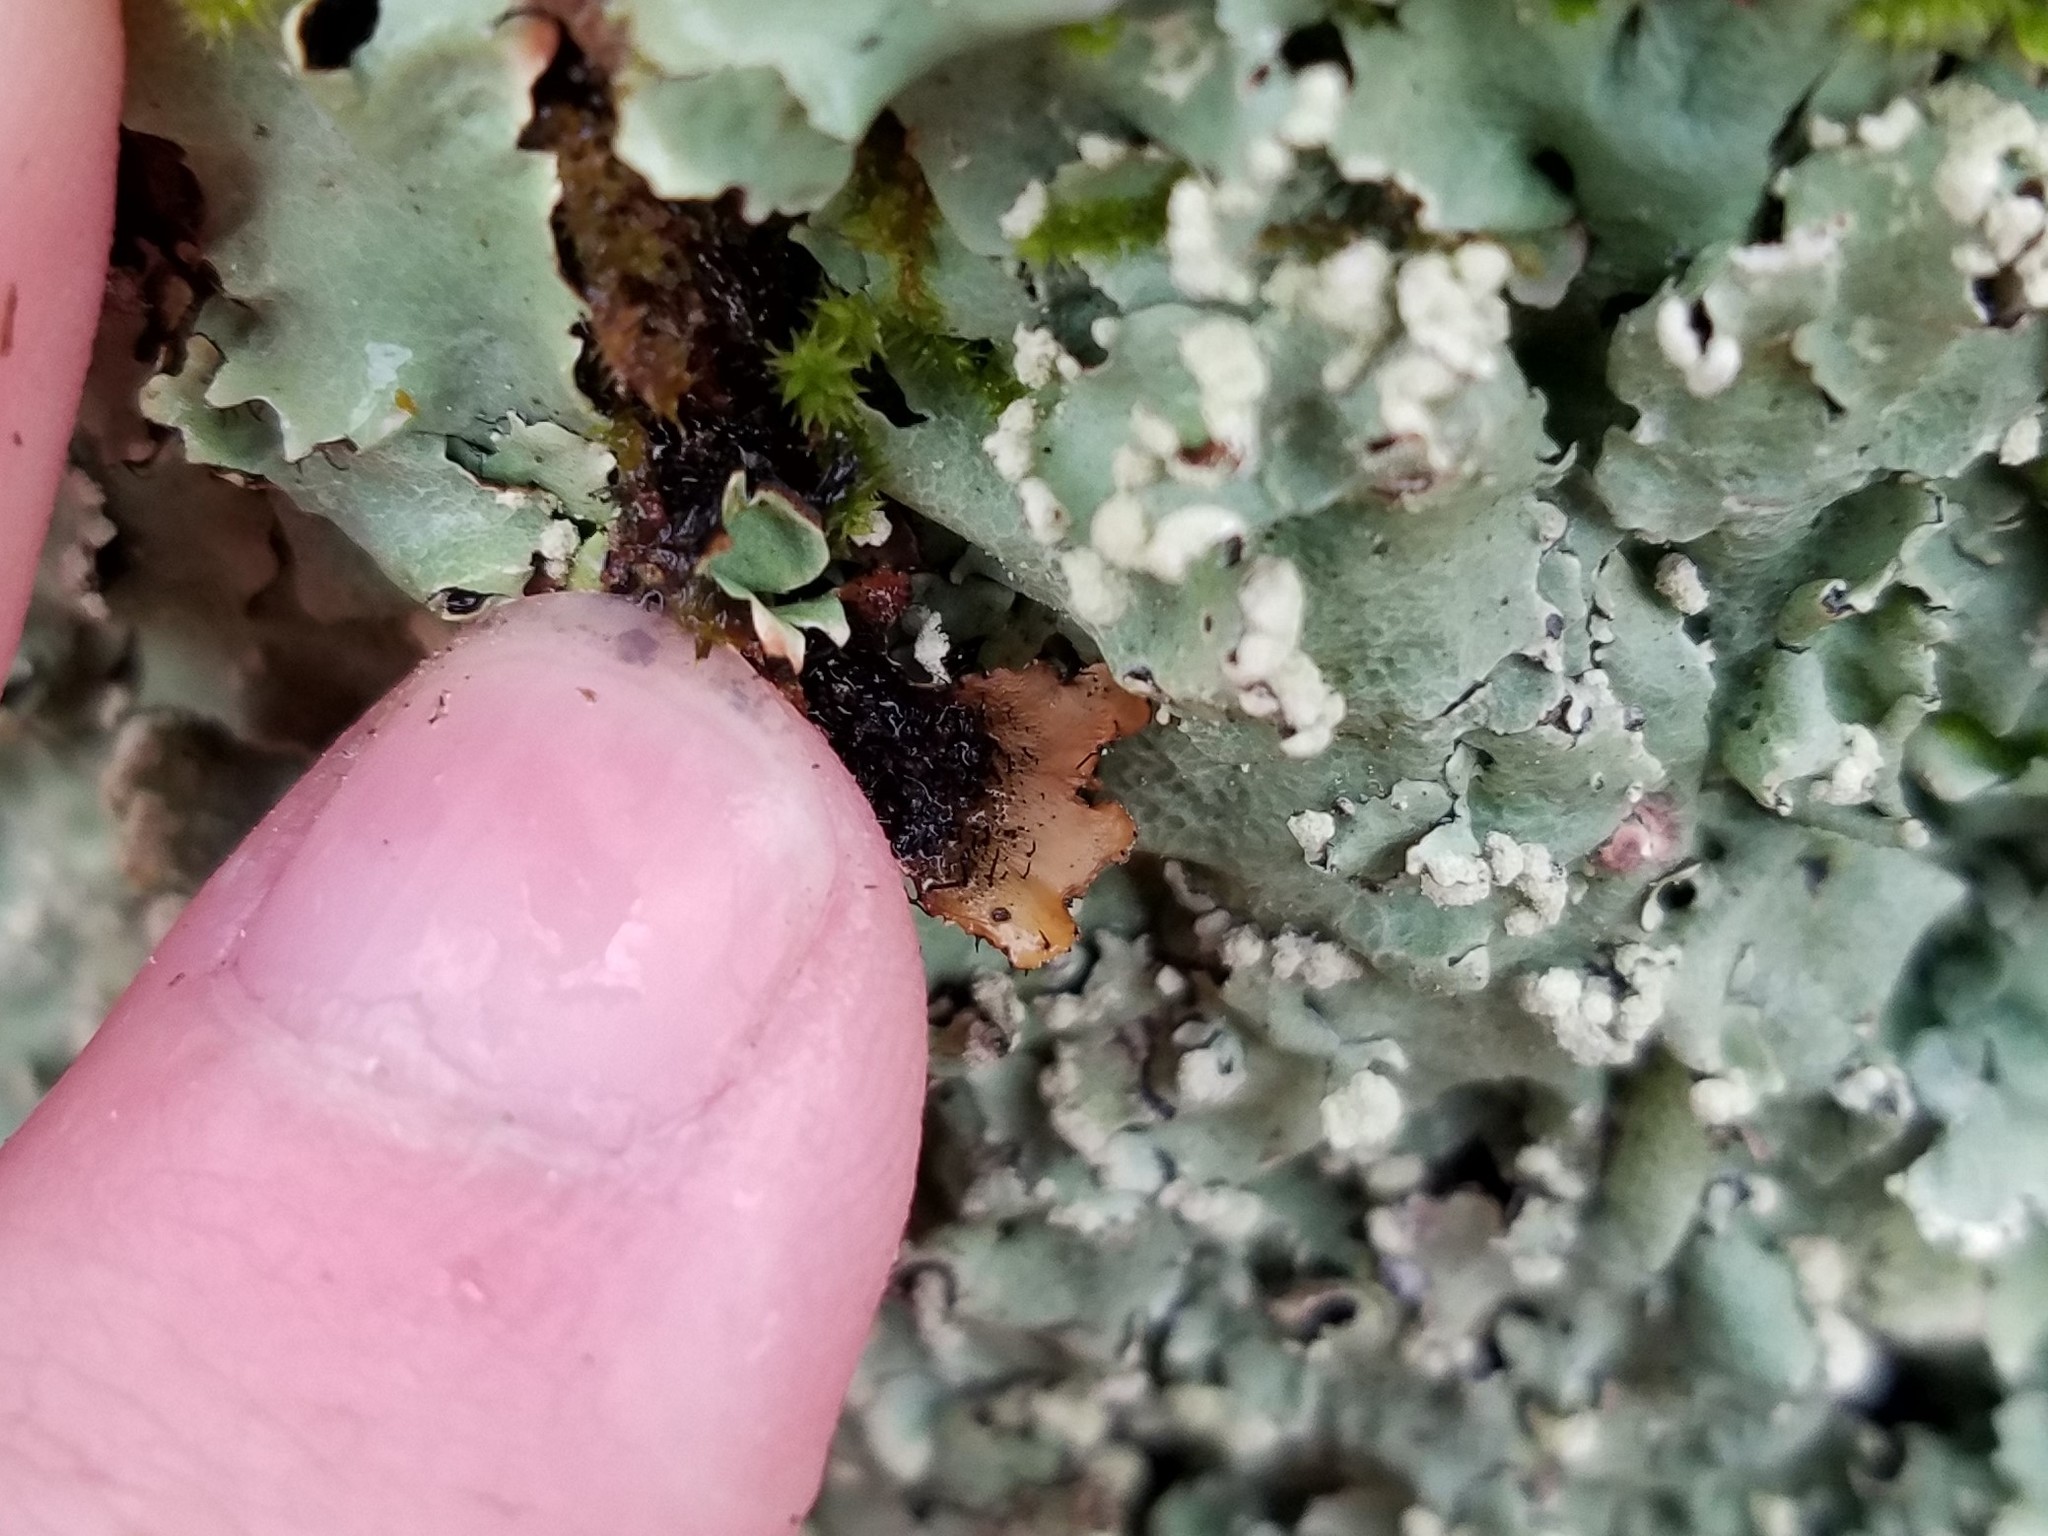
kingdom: Fungi
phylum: Ascomycota
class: Lecanoromycetes
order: Lecanorales
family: Parmeliaceae
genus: Crespoa
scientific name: Crespoa crozalsiana
